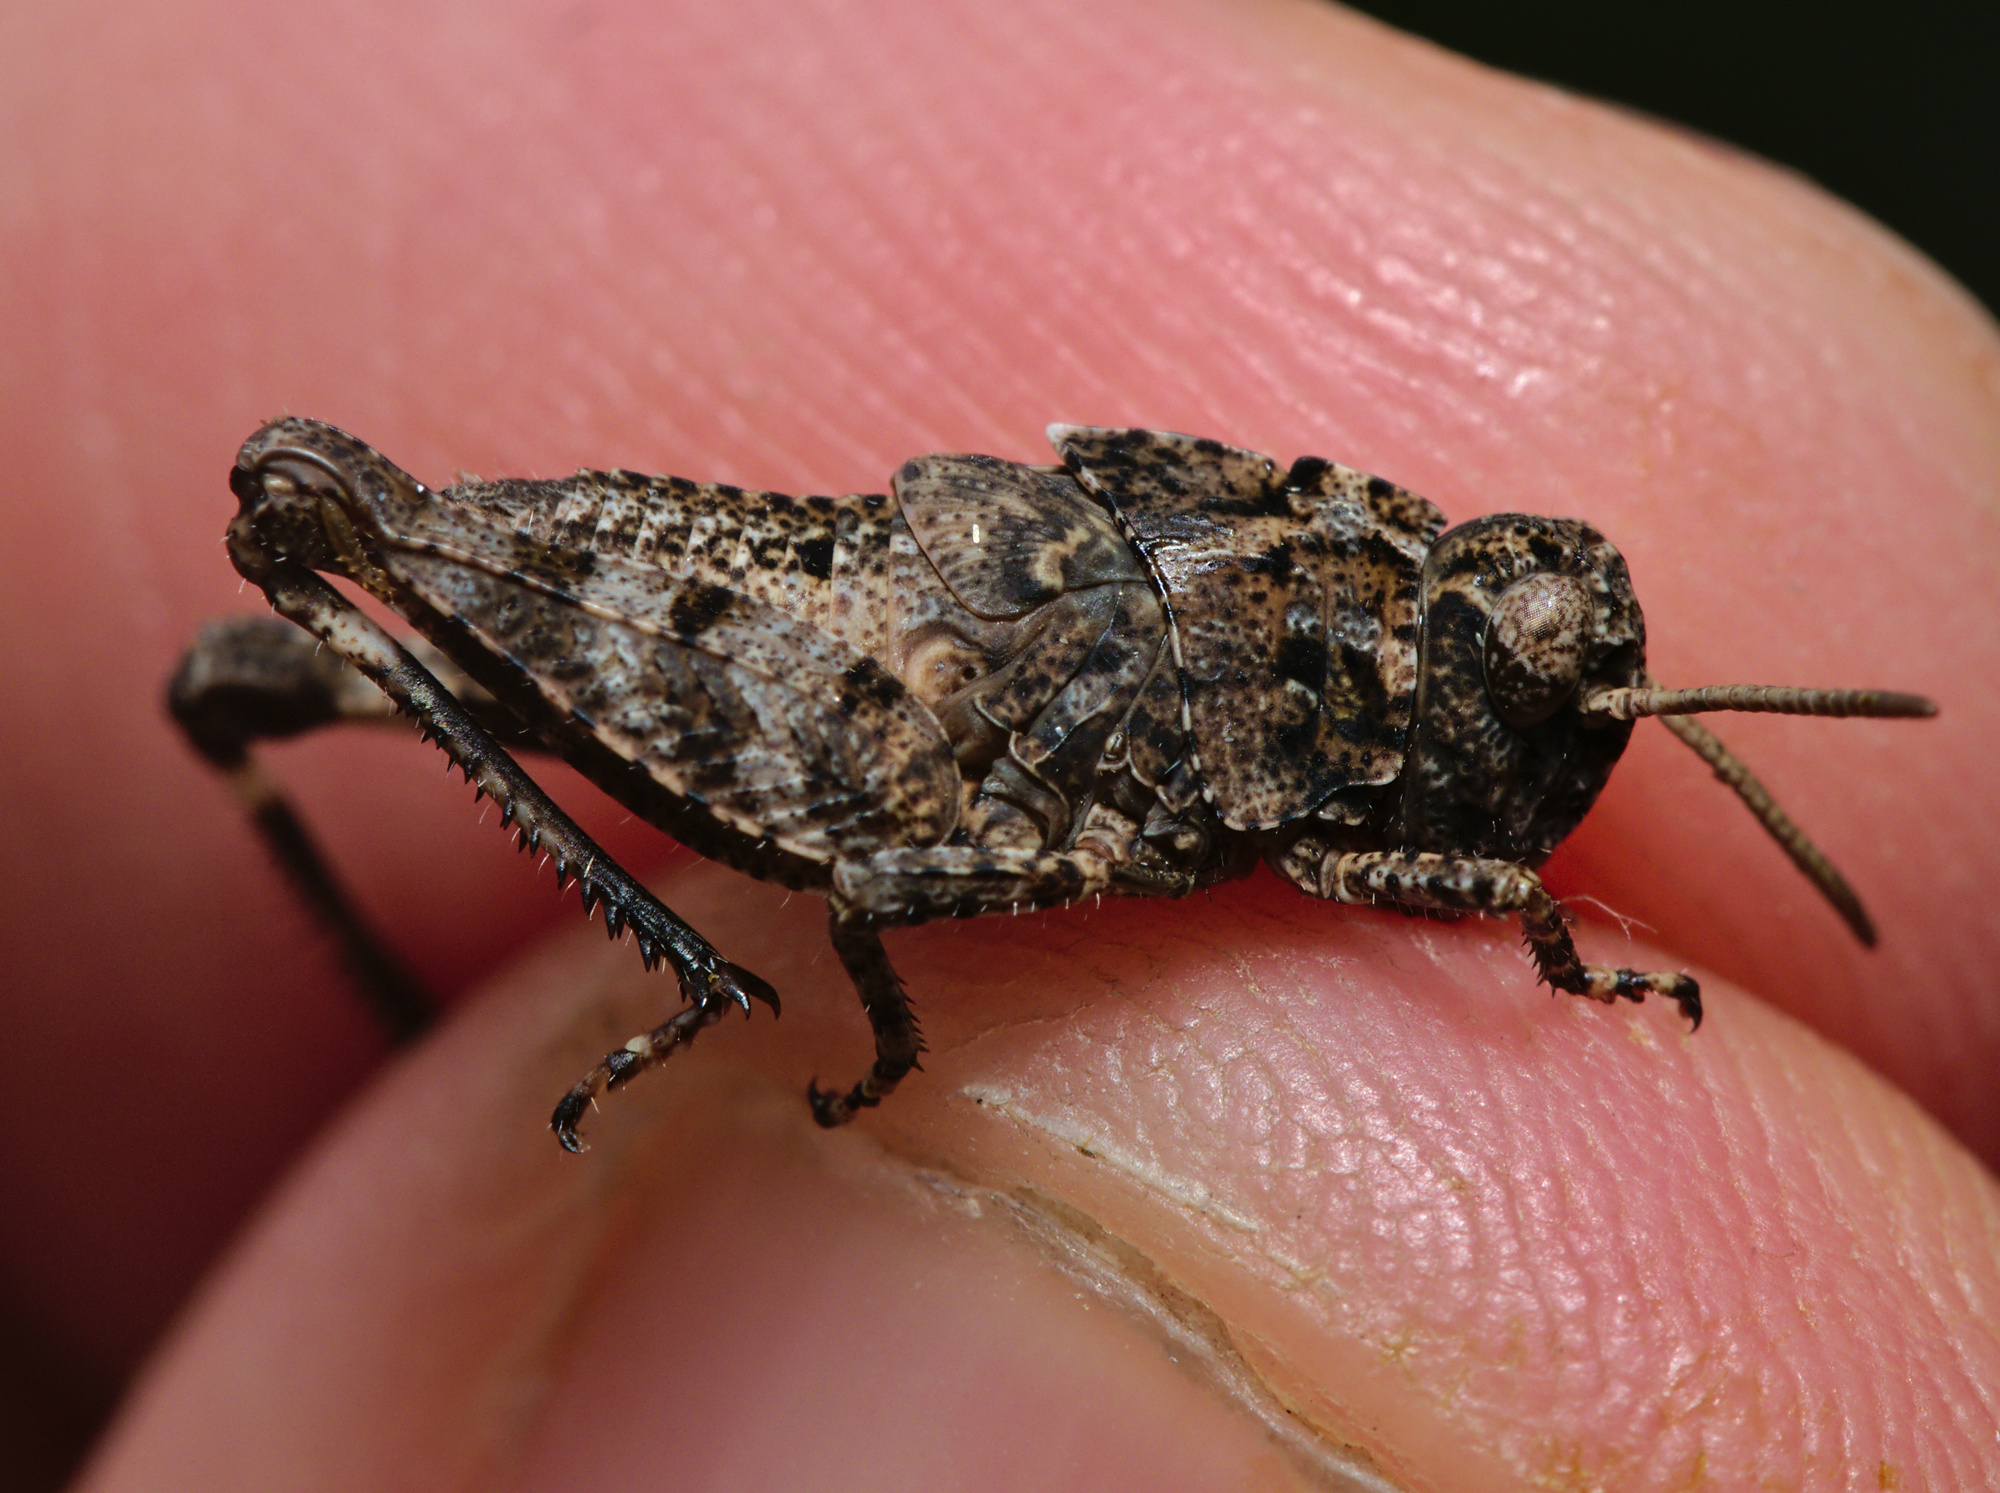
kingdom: Animalia
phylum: Arthropoda
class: Insecta
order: Orthoptera
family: Acrididae
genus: Oedipoda
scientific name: Oedipoda caerulescens
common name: Blue-winged grasshopper
